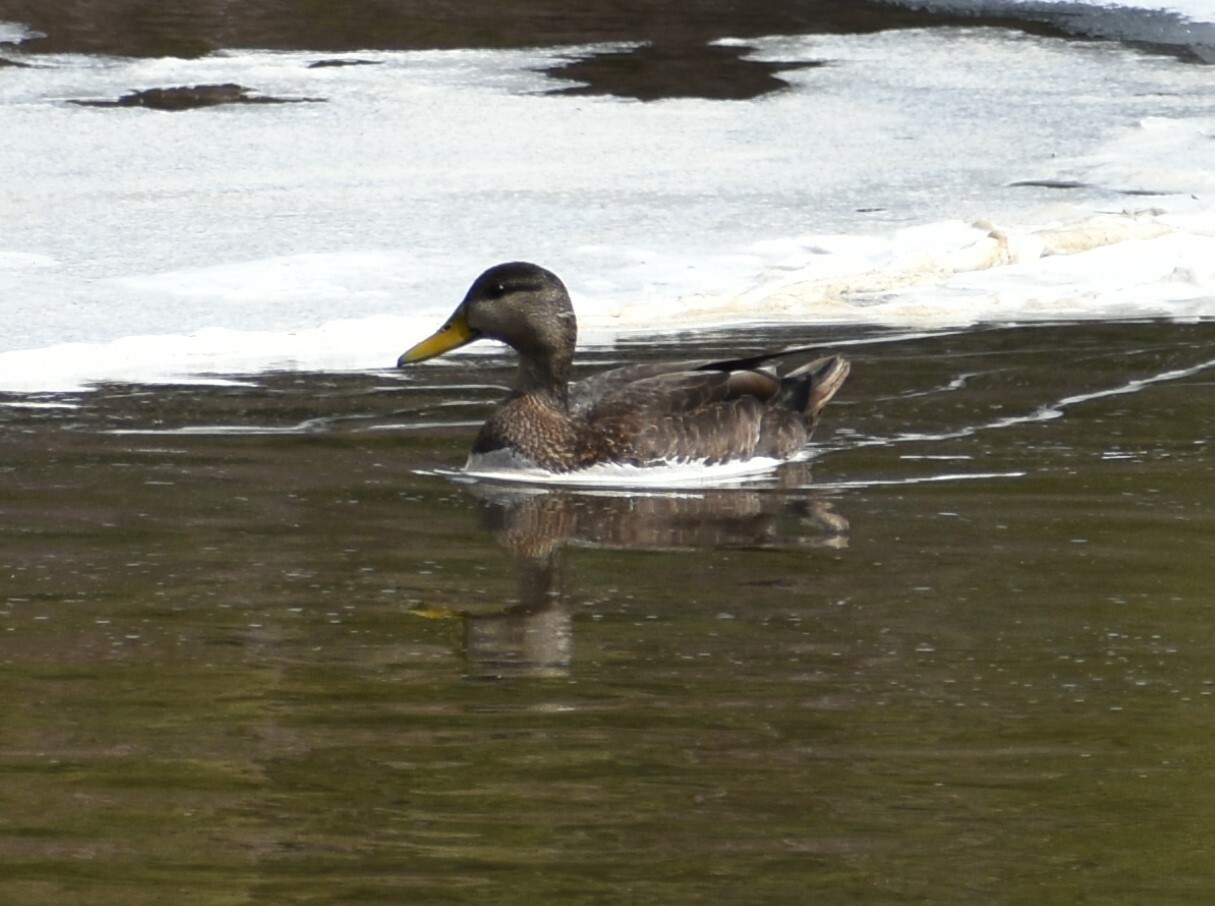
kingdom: Animalia
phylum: Chordata
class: Aves
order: Anseriformes
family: Anatidae
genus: Anas
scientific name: Anas rubripes
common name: American black duck
